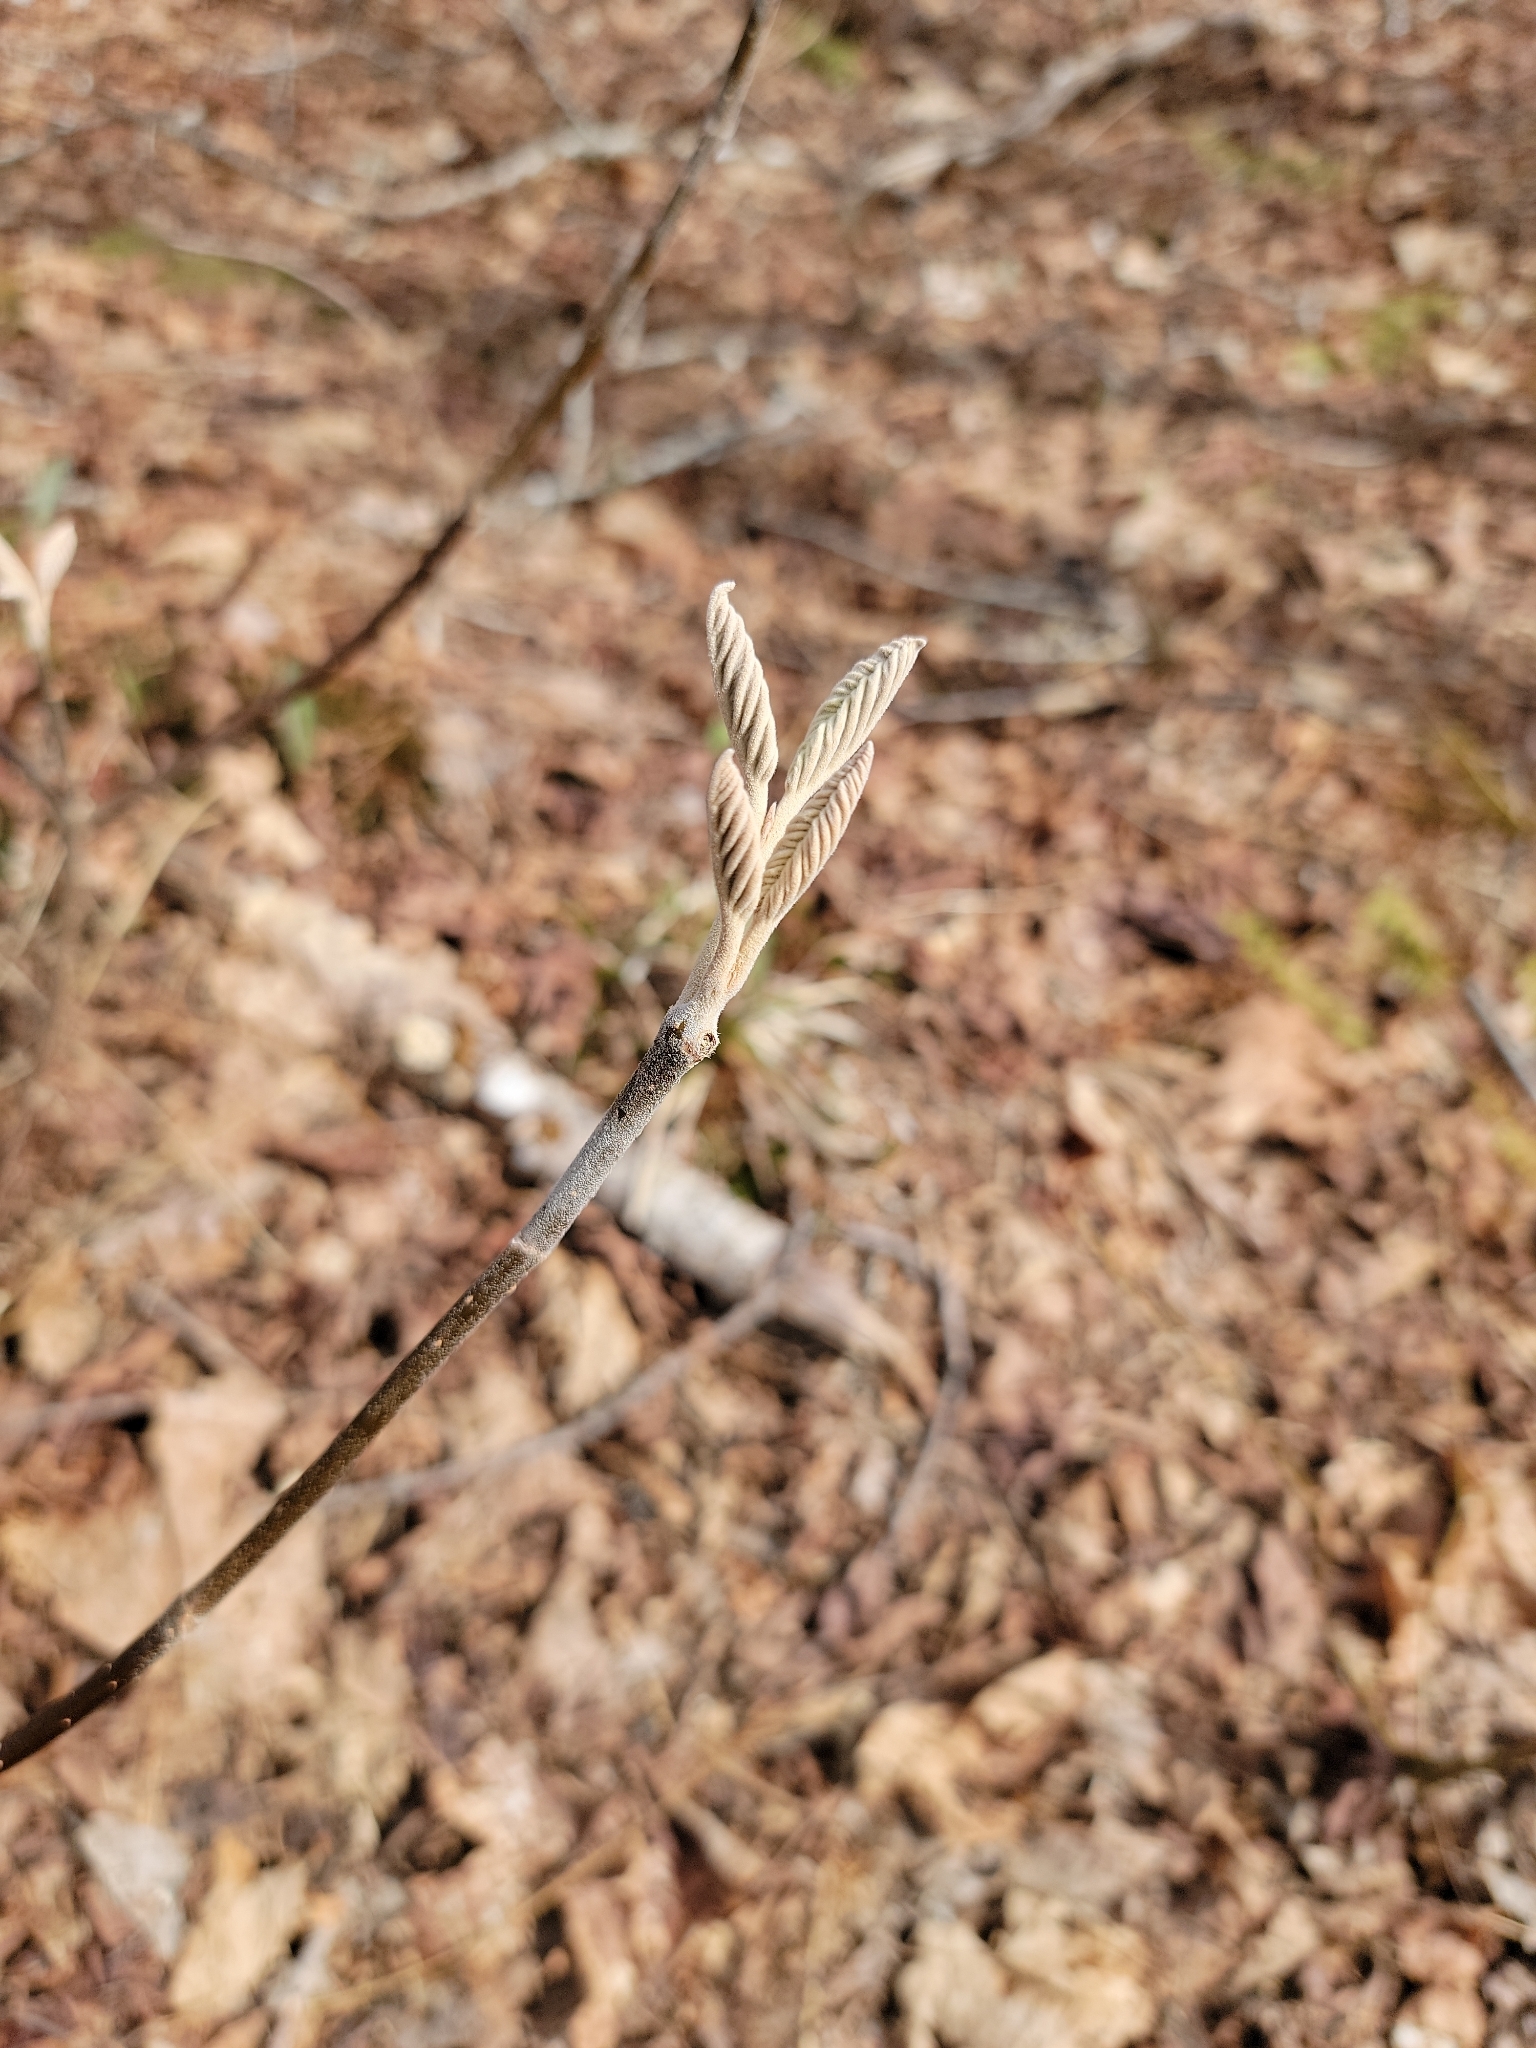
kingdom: Plantae
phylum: Tracheophyta
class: Magnoliopsida
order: Dipsacales
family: Viburnaceae
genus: Viburnum
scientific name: Viburnum lantanoides
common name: Hobblebush
